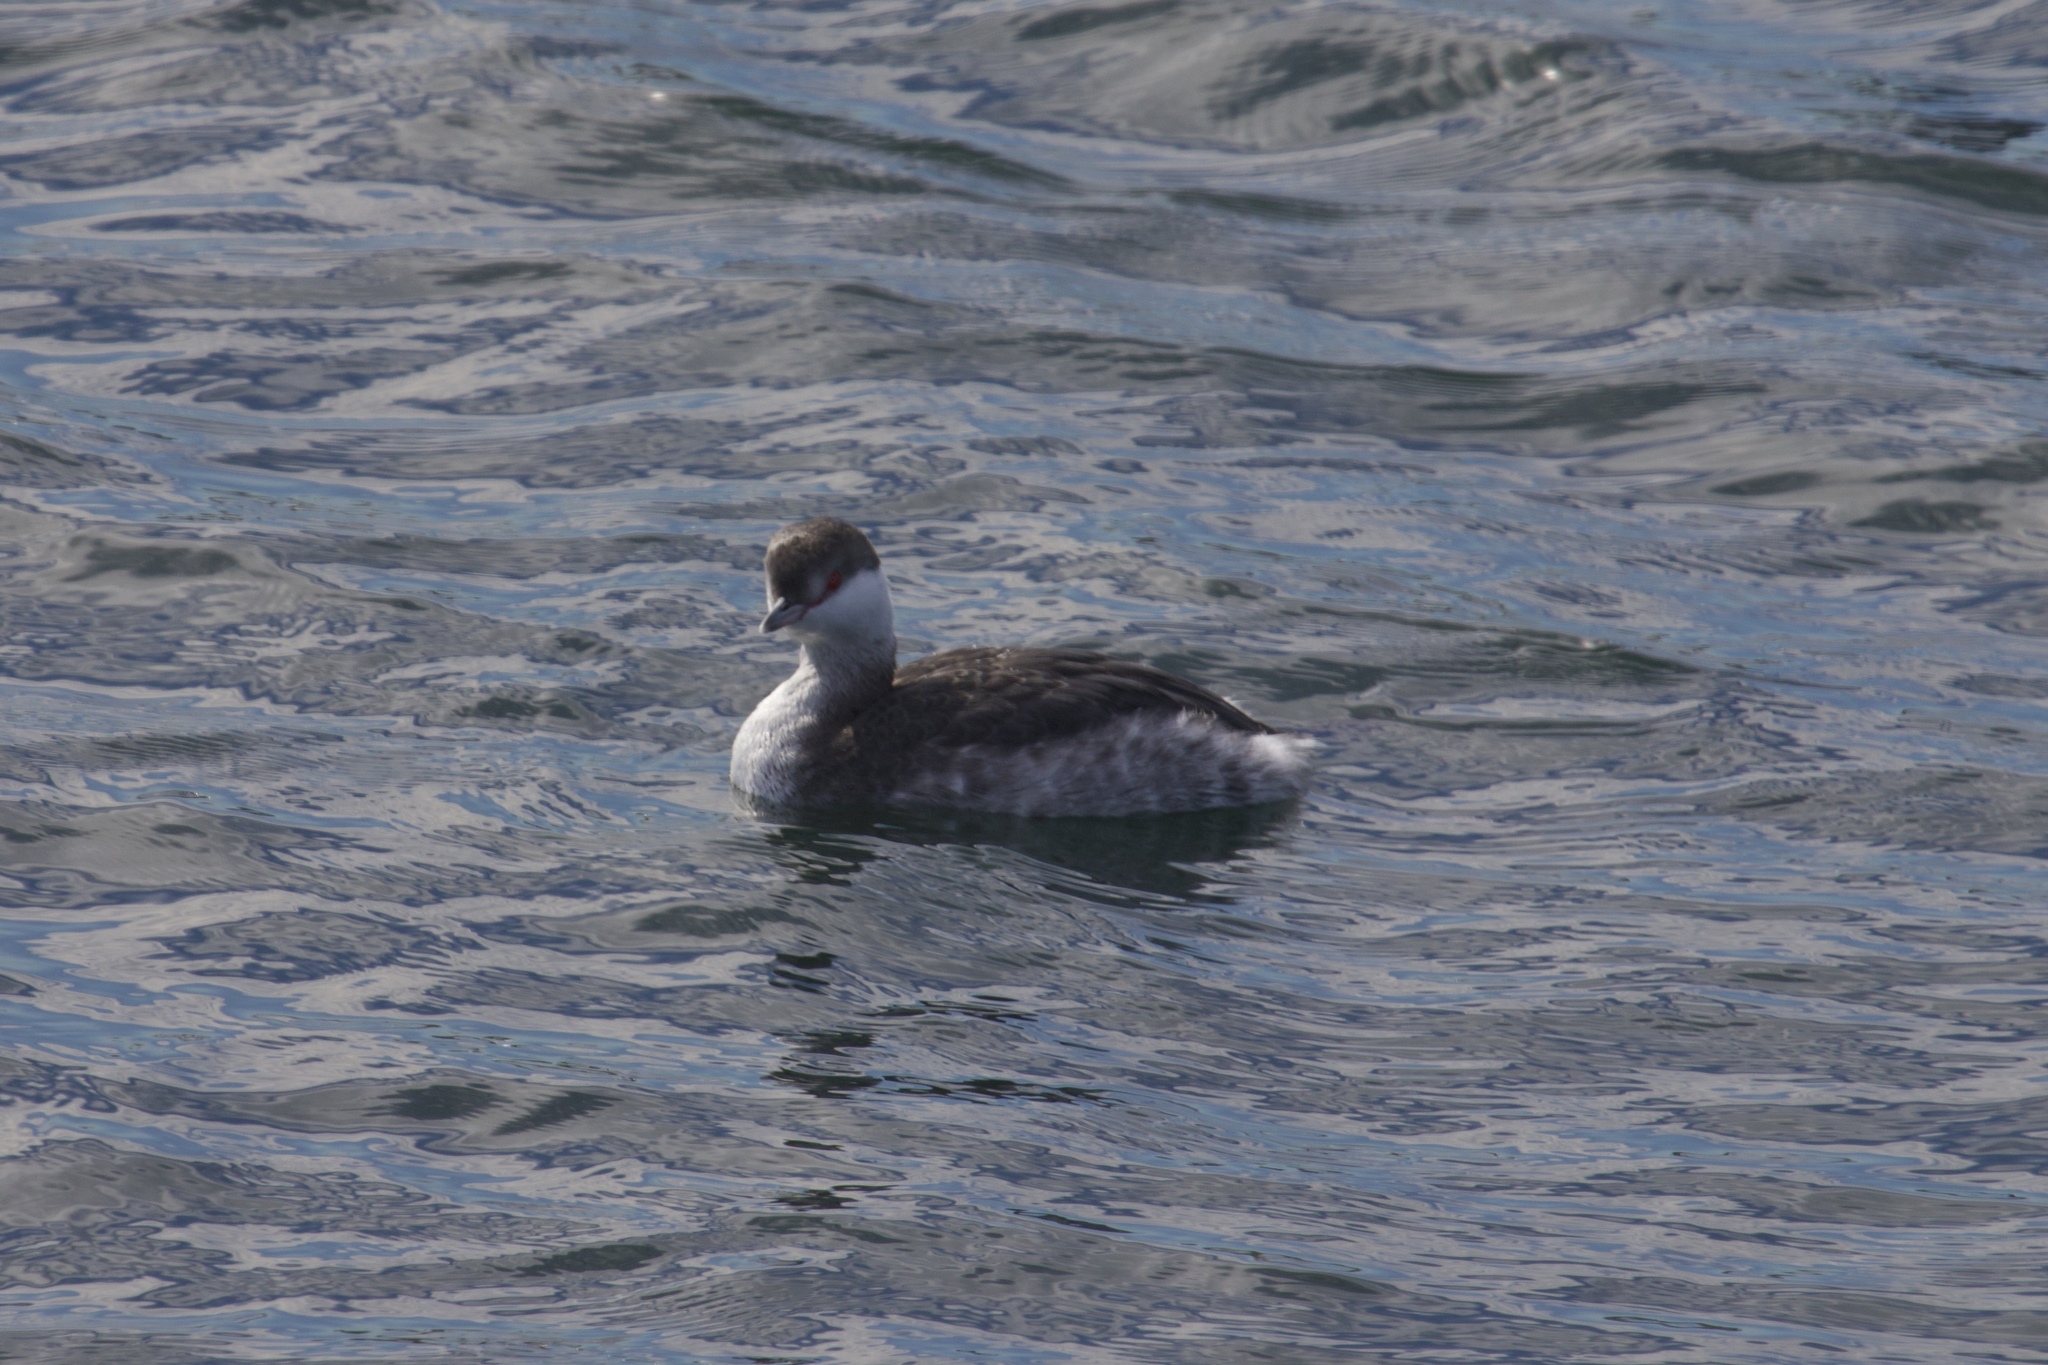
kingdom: Animalia
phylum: Chordata
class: Aves
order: Podicipediformes
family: Podicipedidae
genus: Podiceps
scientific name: Podiceps auritus
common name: Horned grebe
